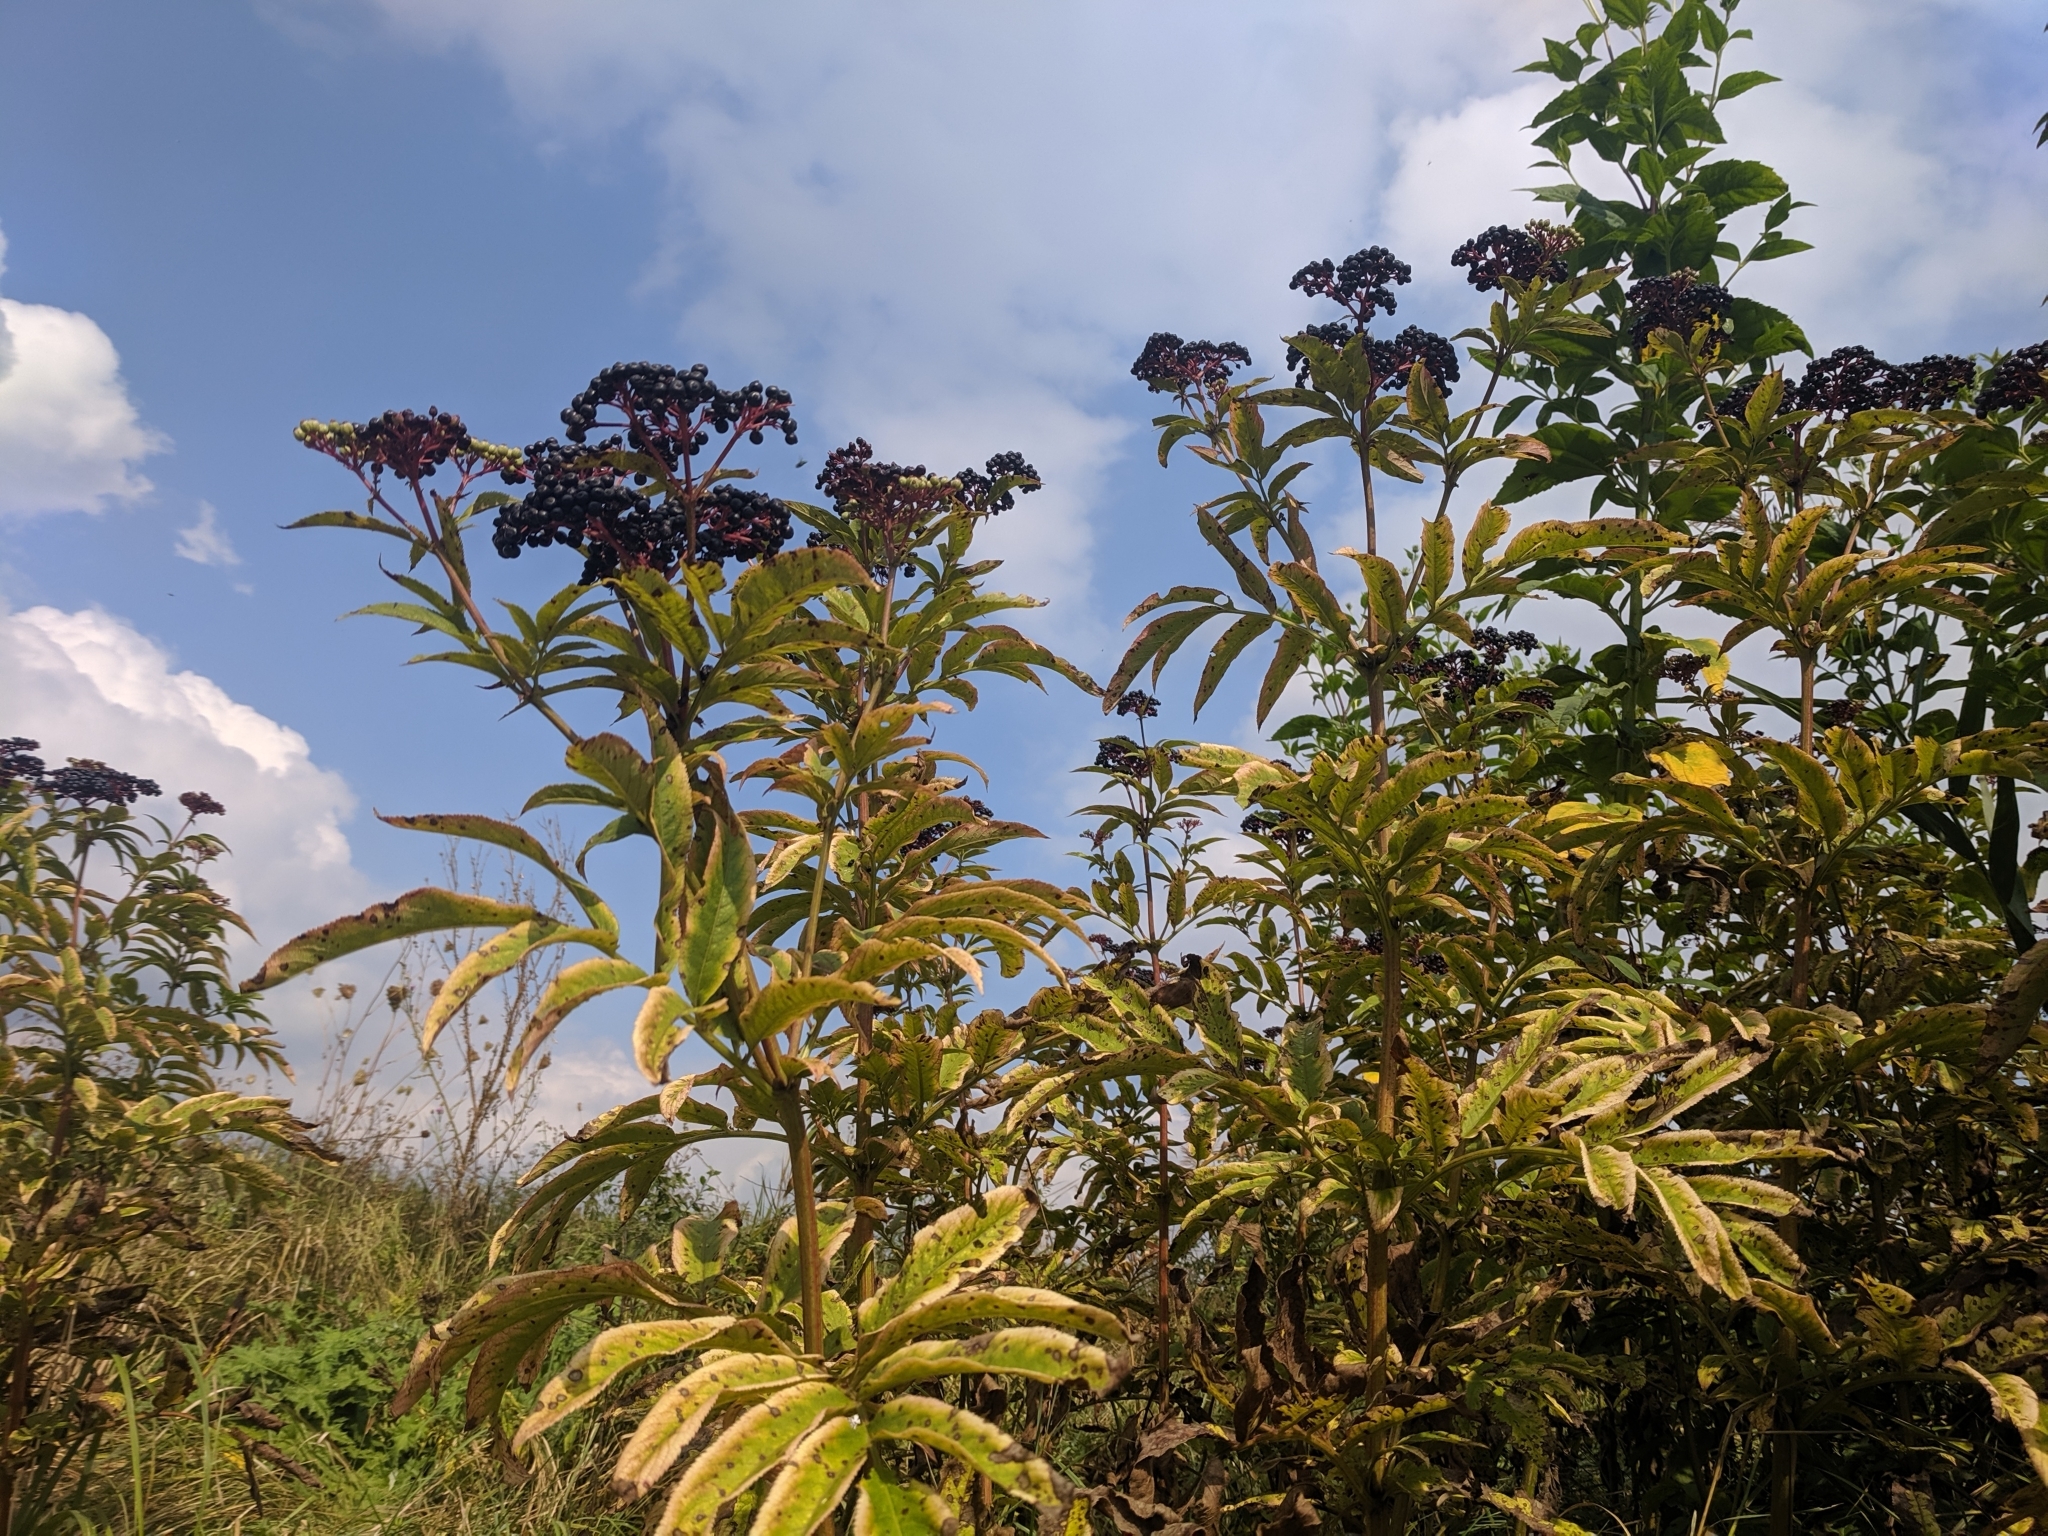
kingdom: Plantae
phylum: Tracheophyta
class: Magnoliopsida
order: Dipsacales
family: Viburnaceae
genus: Sambucus
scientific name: Sambucus ebulus
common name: Dwarf elder
